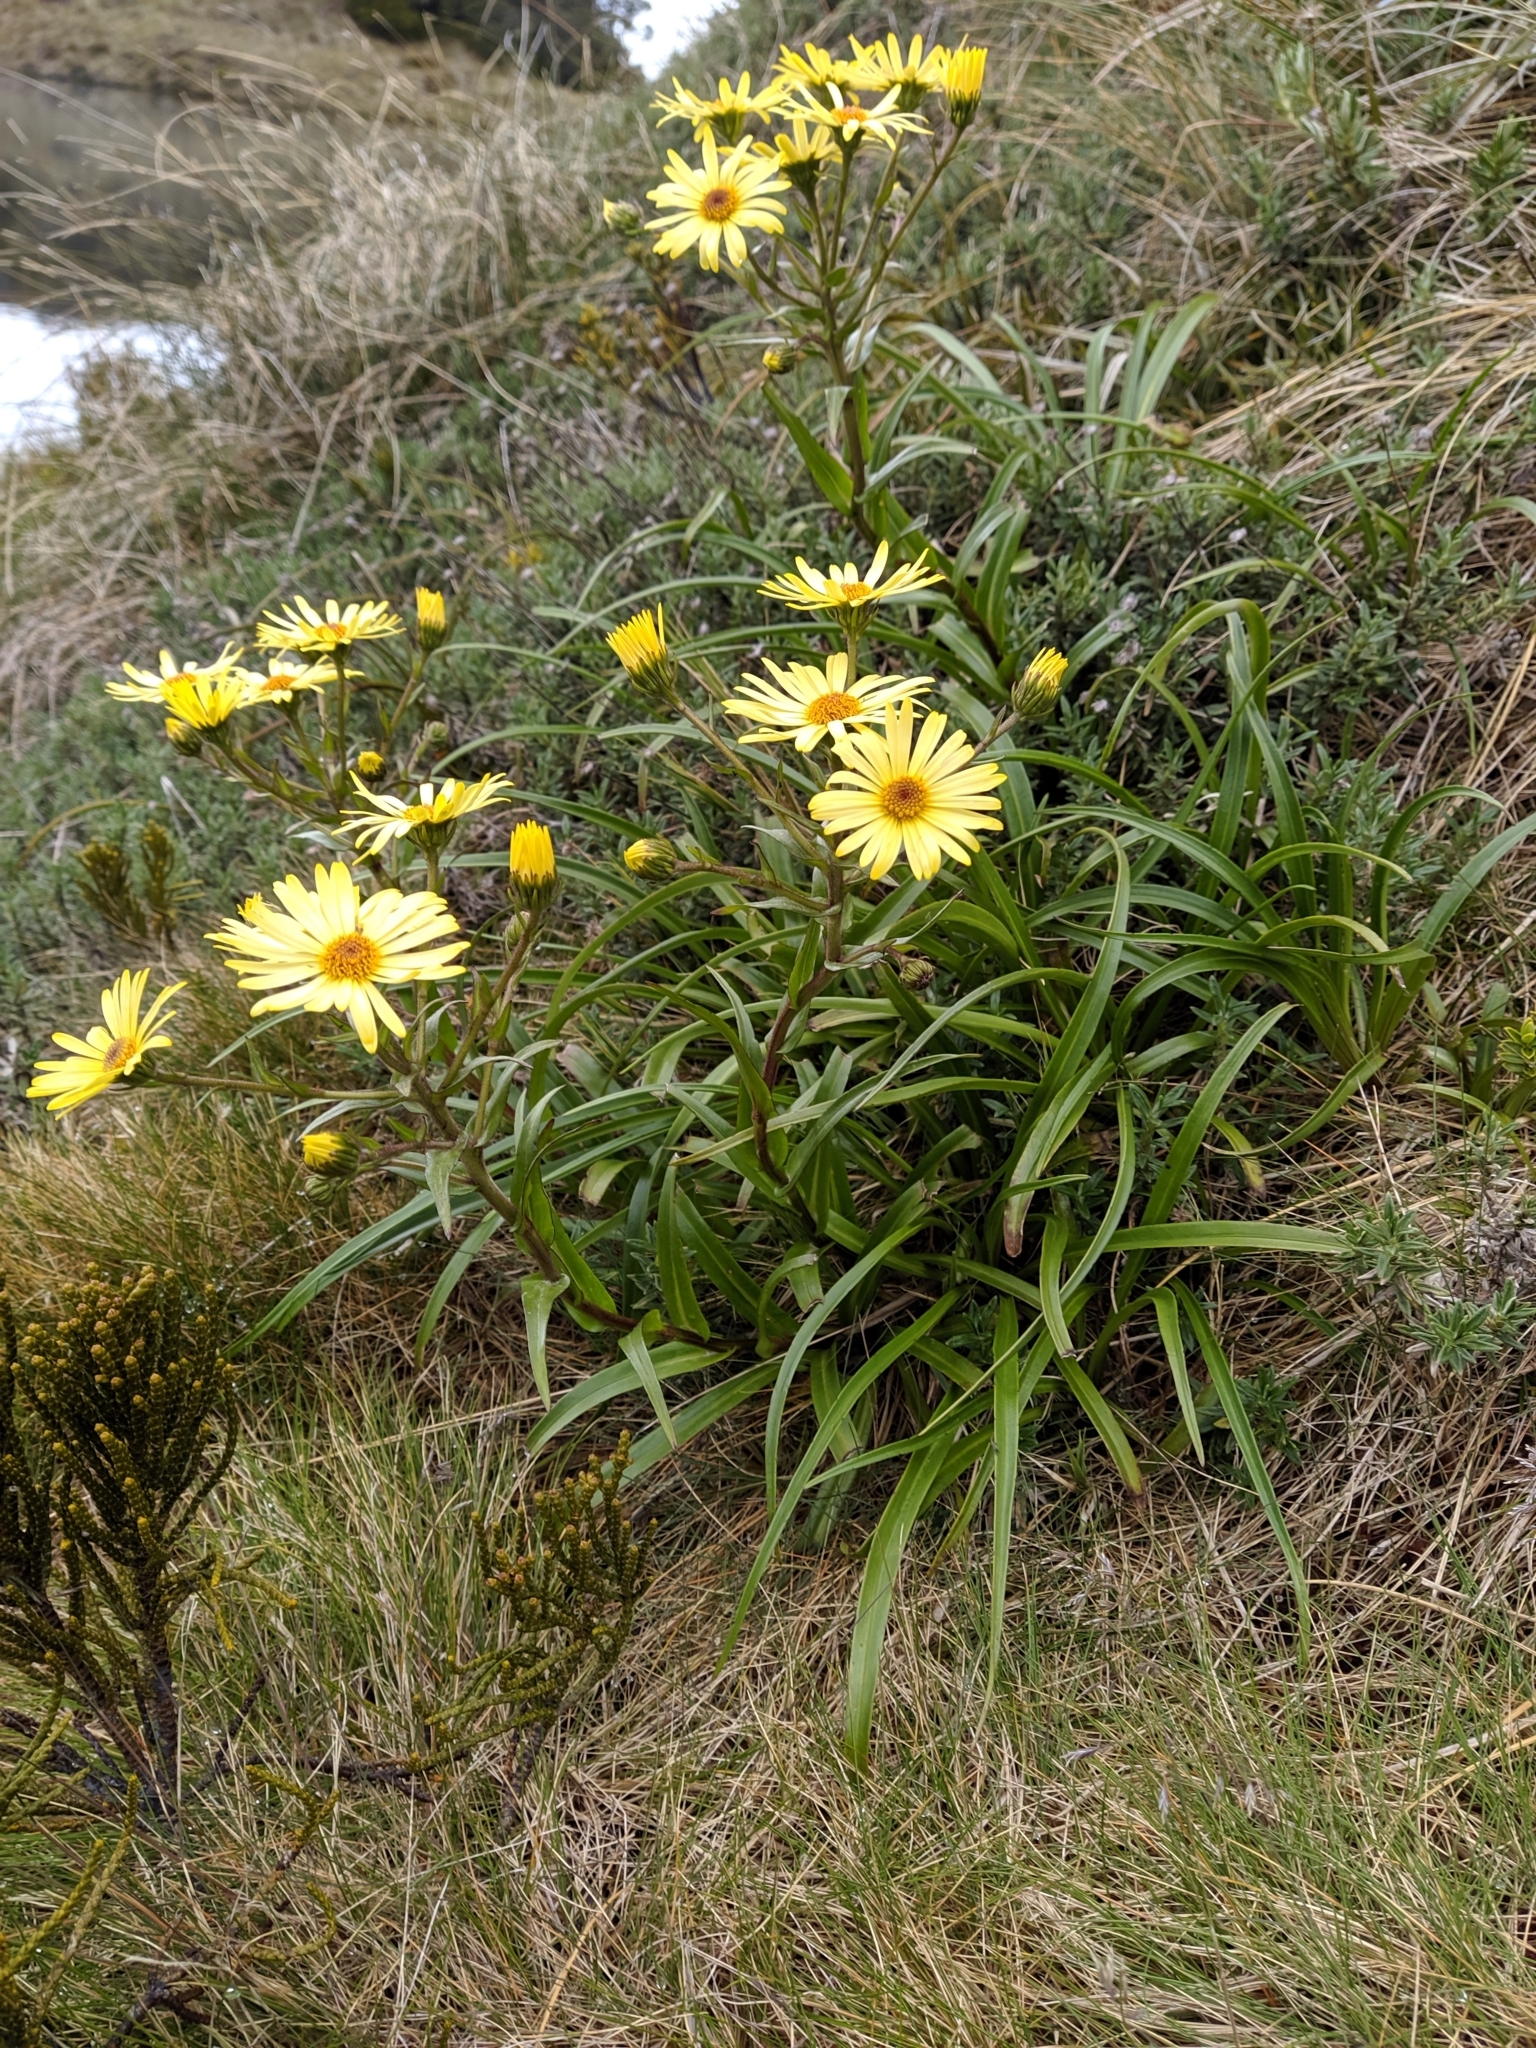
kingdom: Plantae
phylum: Tracheophyta
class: Magnoliopsida
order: Asterales
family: Asteraceae
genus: Dolichoglottis
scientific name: Dolichoglottis
